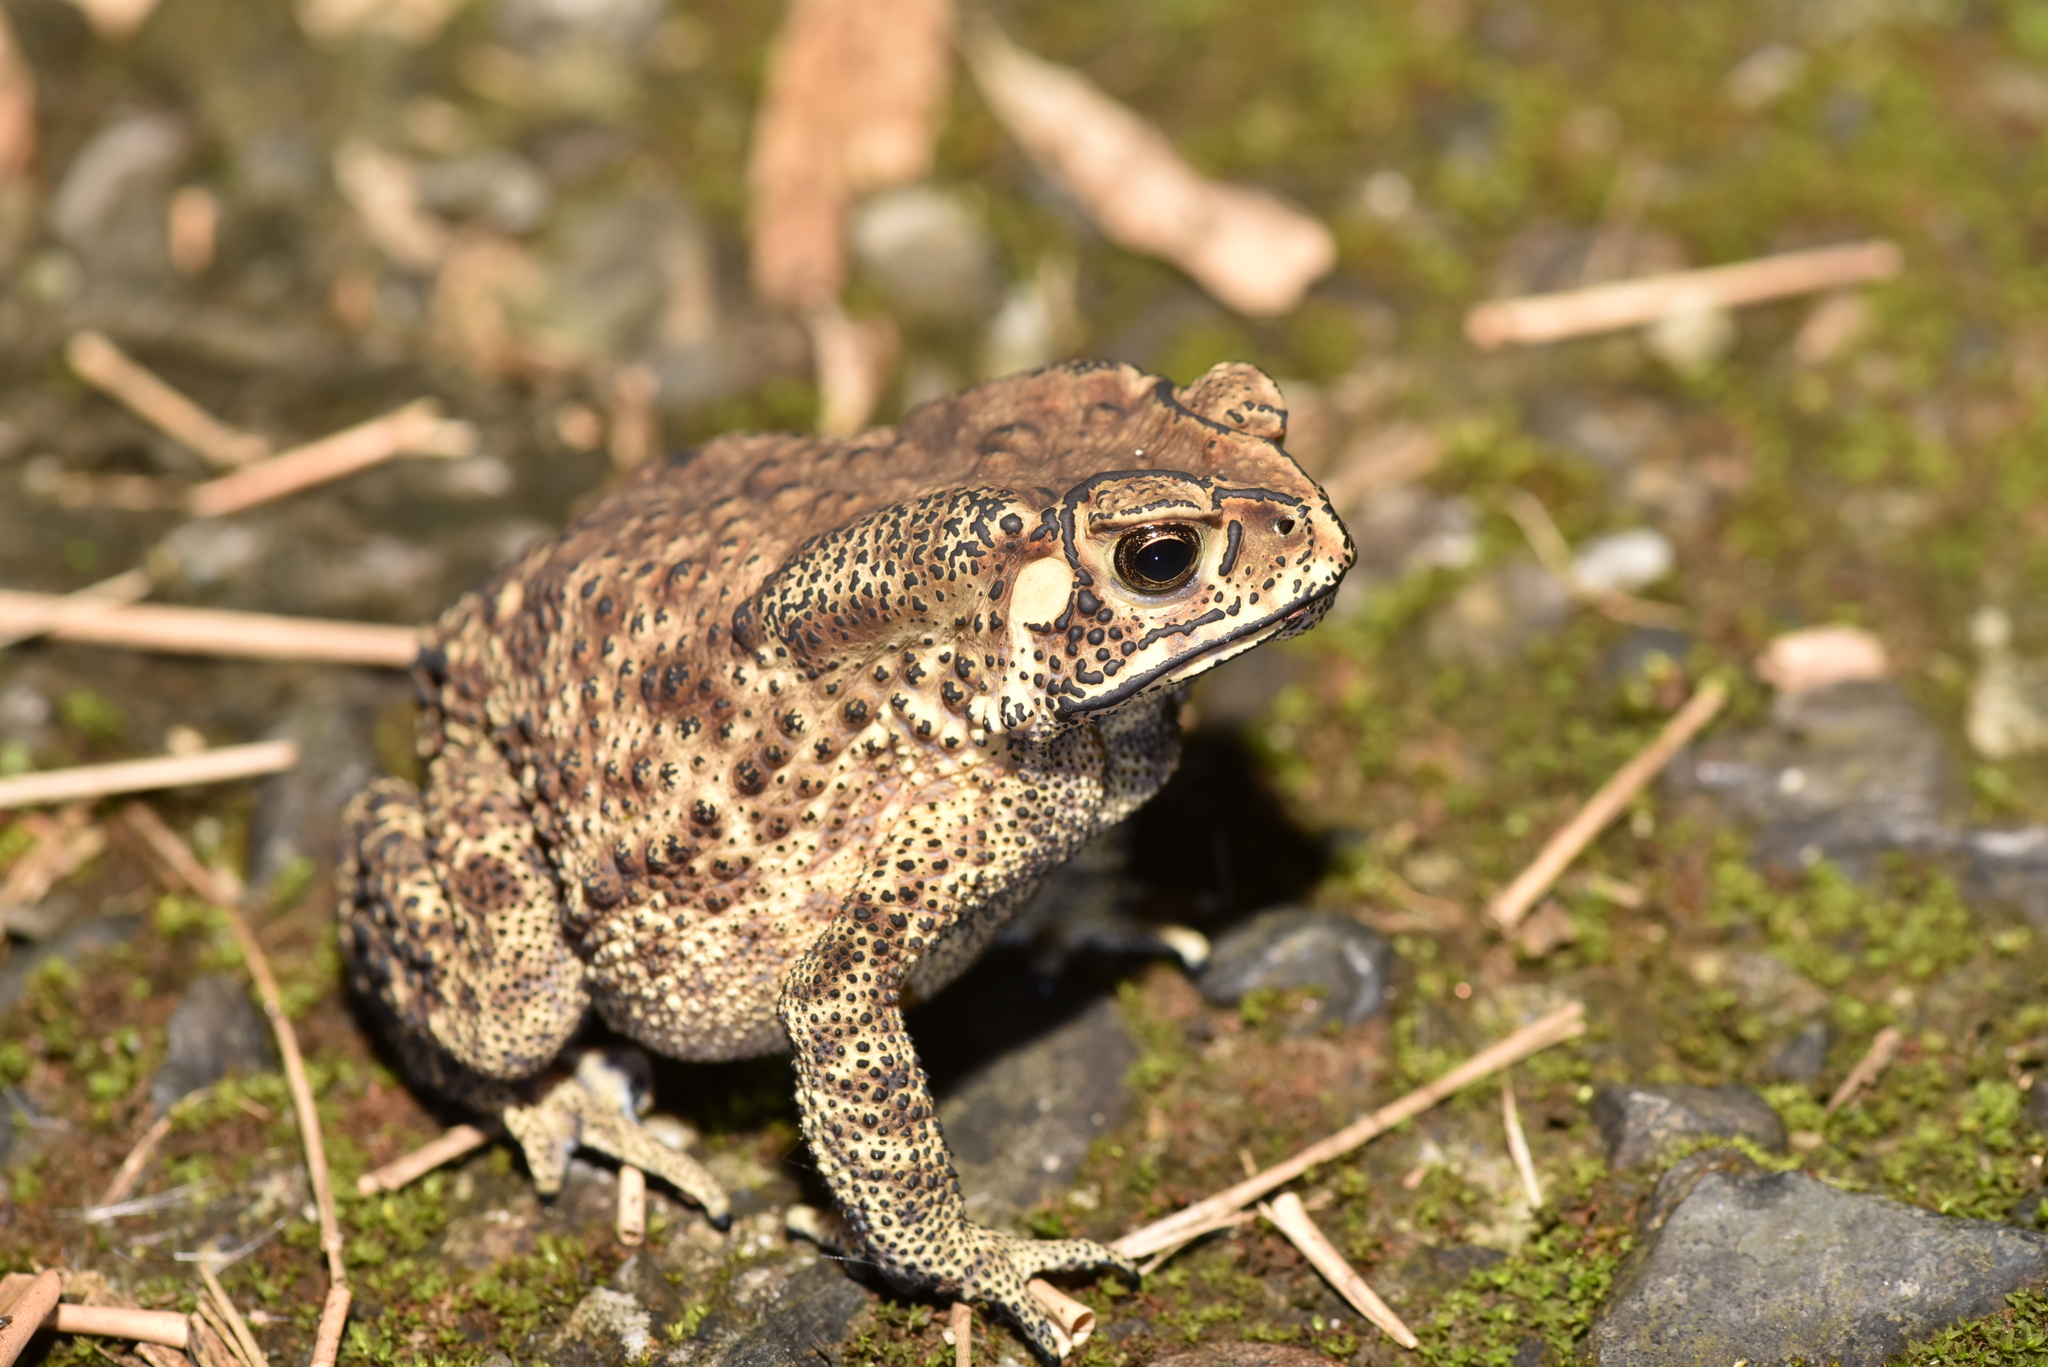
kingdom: Animalia
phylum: Chordata
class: Amphibia
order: Anura
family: Bufonidae
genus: Duttaphrynus
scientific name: Duttaphrynus melanostictus
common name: Common sunda toad
